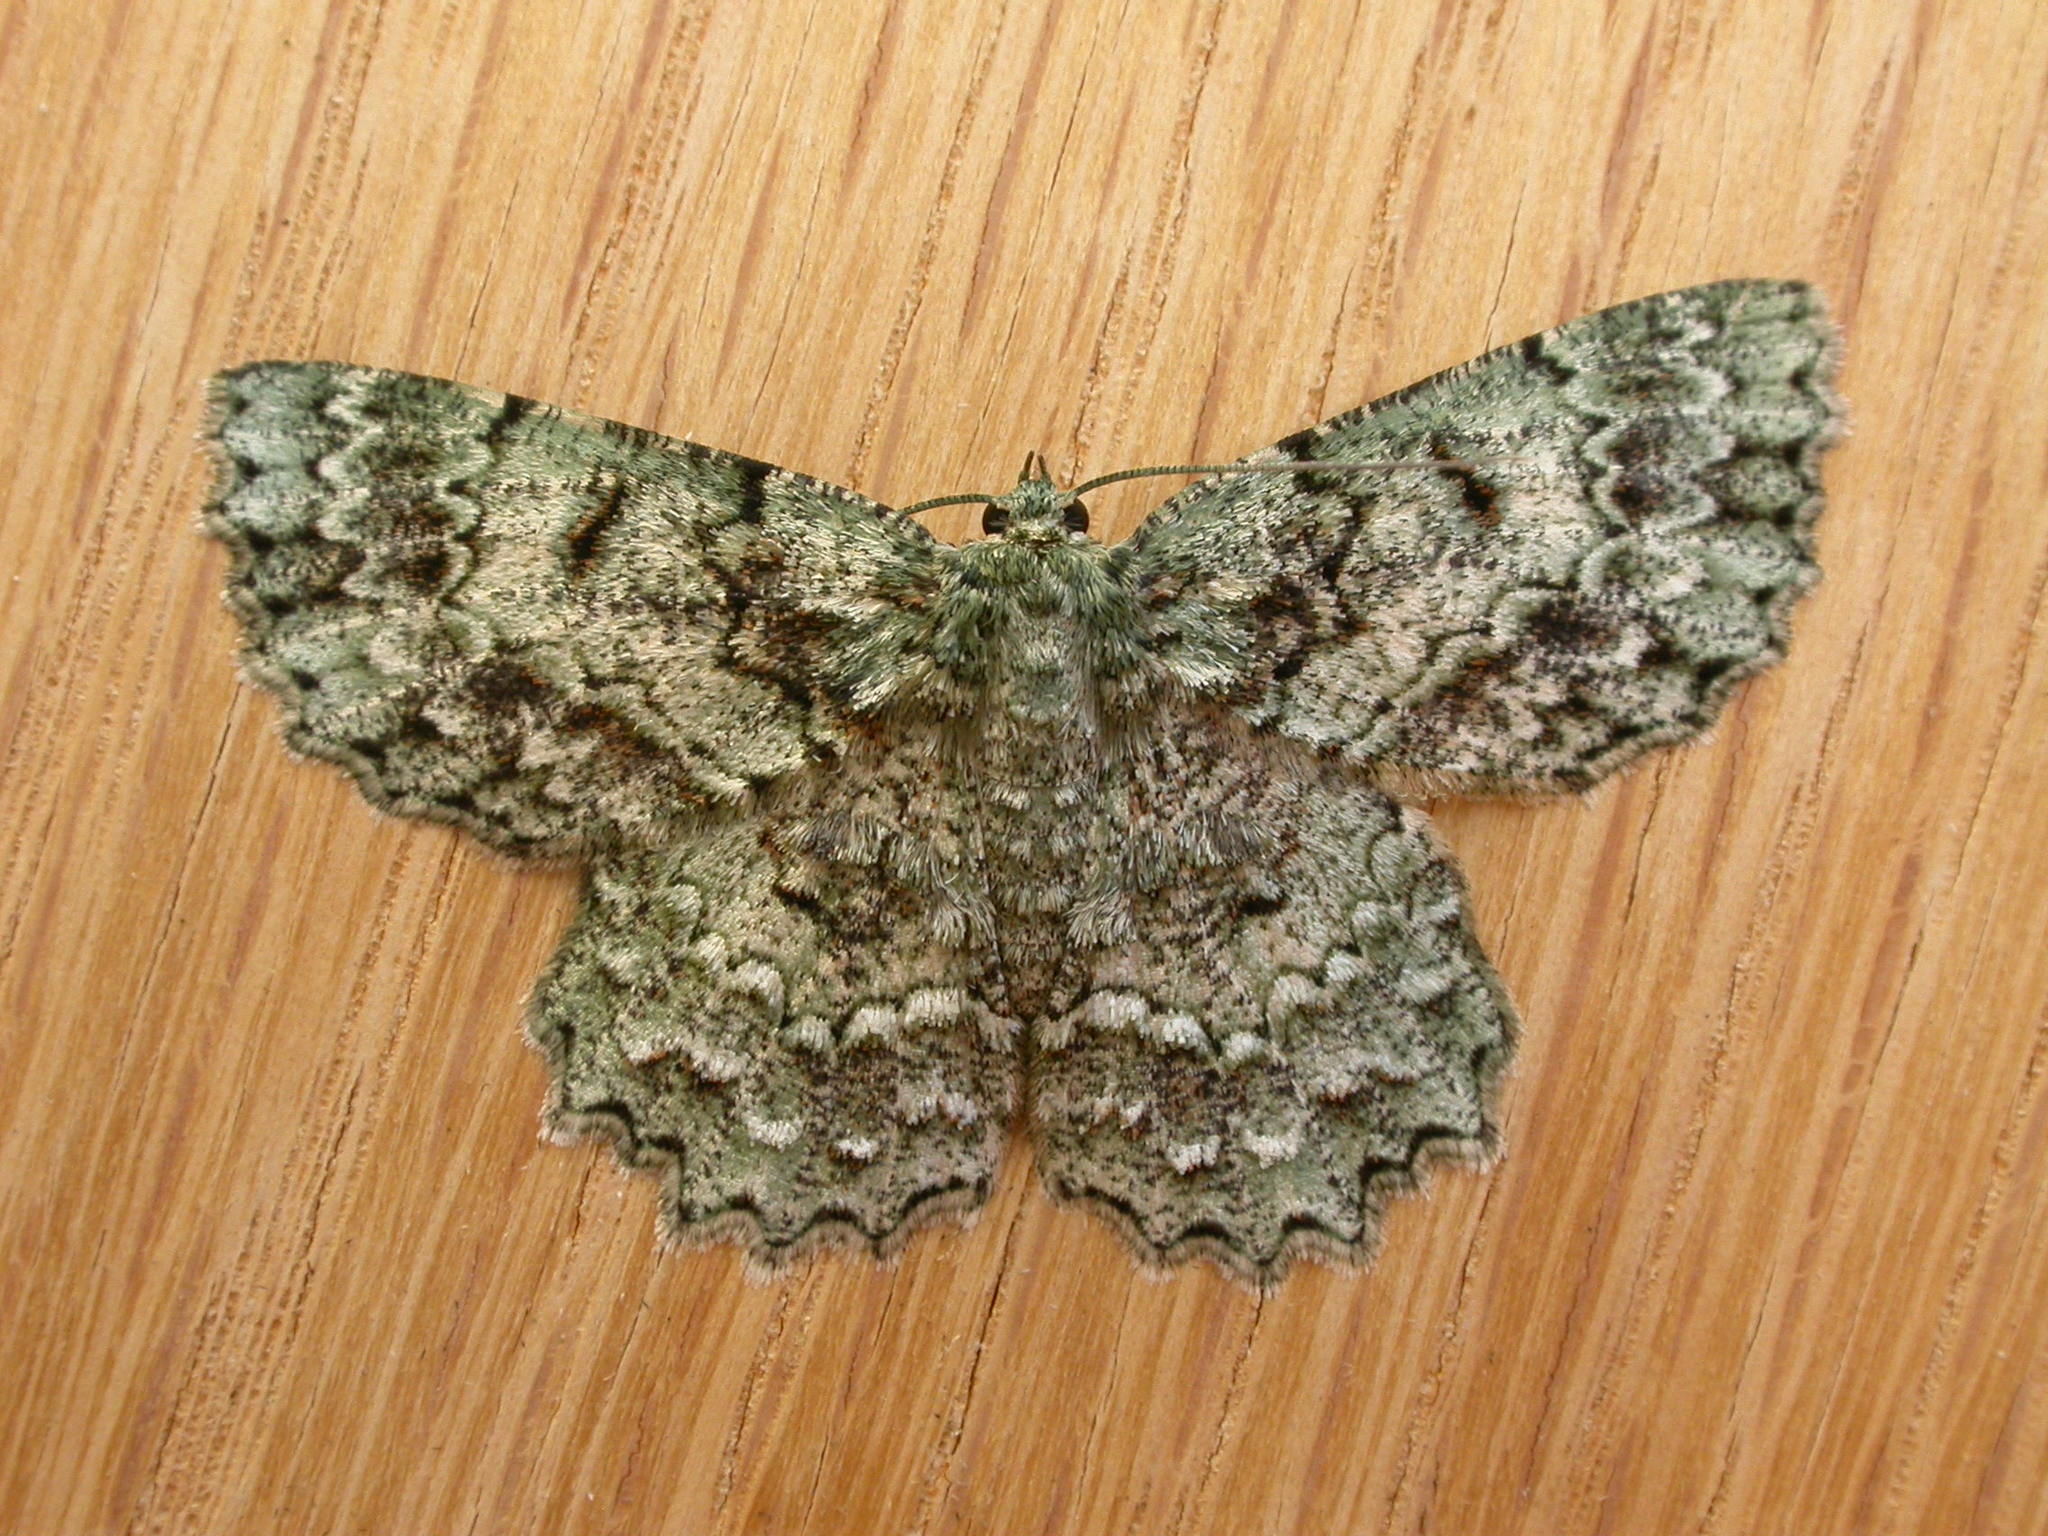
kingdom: Animalia
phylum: Arthropoda
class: Insecta
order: Lepidoptera
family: Geometridae
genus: Hypodoxa
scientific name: Hypodoxa muscosaria
